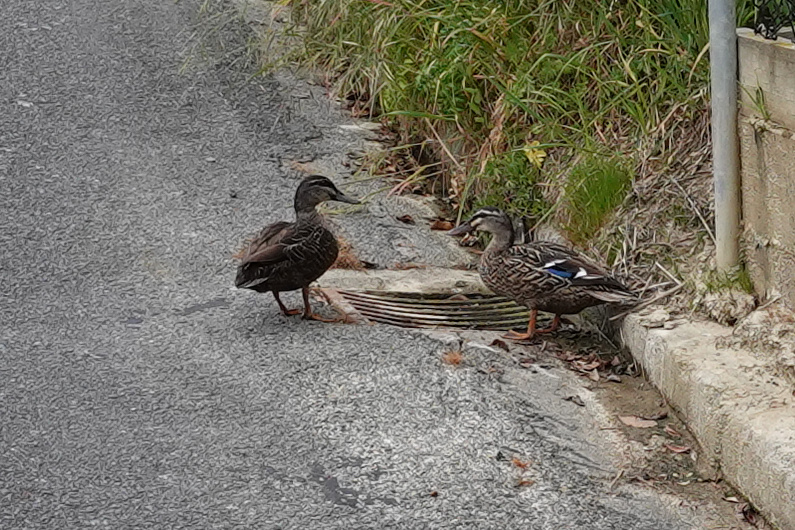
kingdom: Animalia
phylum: Chordata
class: Aves
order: Anseriformes
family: Anatidae
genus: Anas
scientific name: Anas
